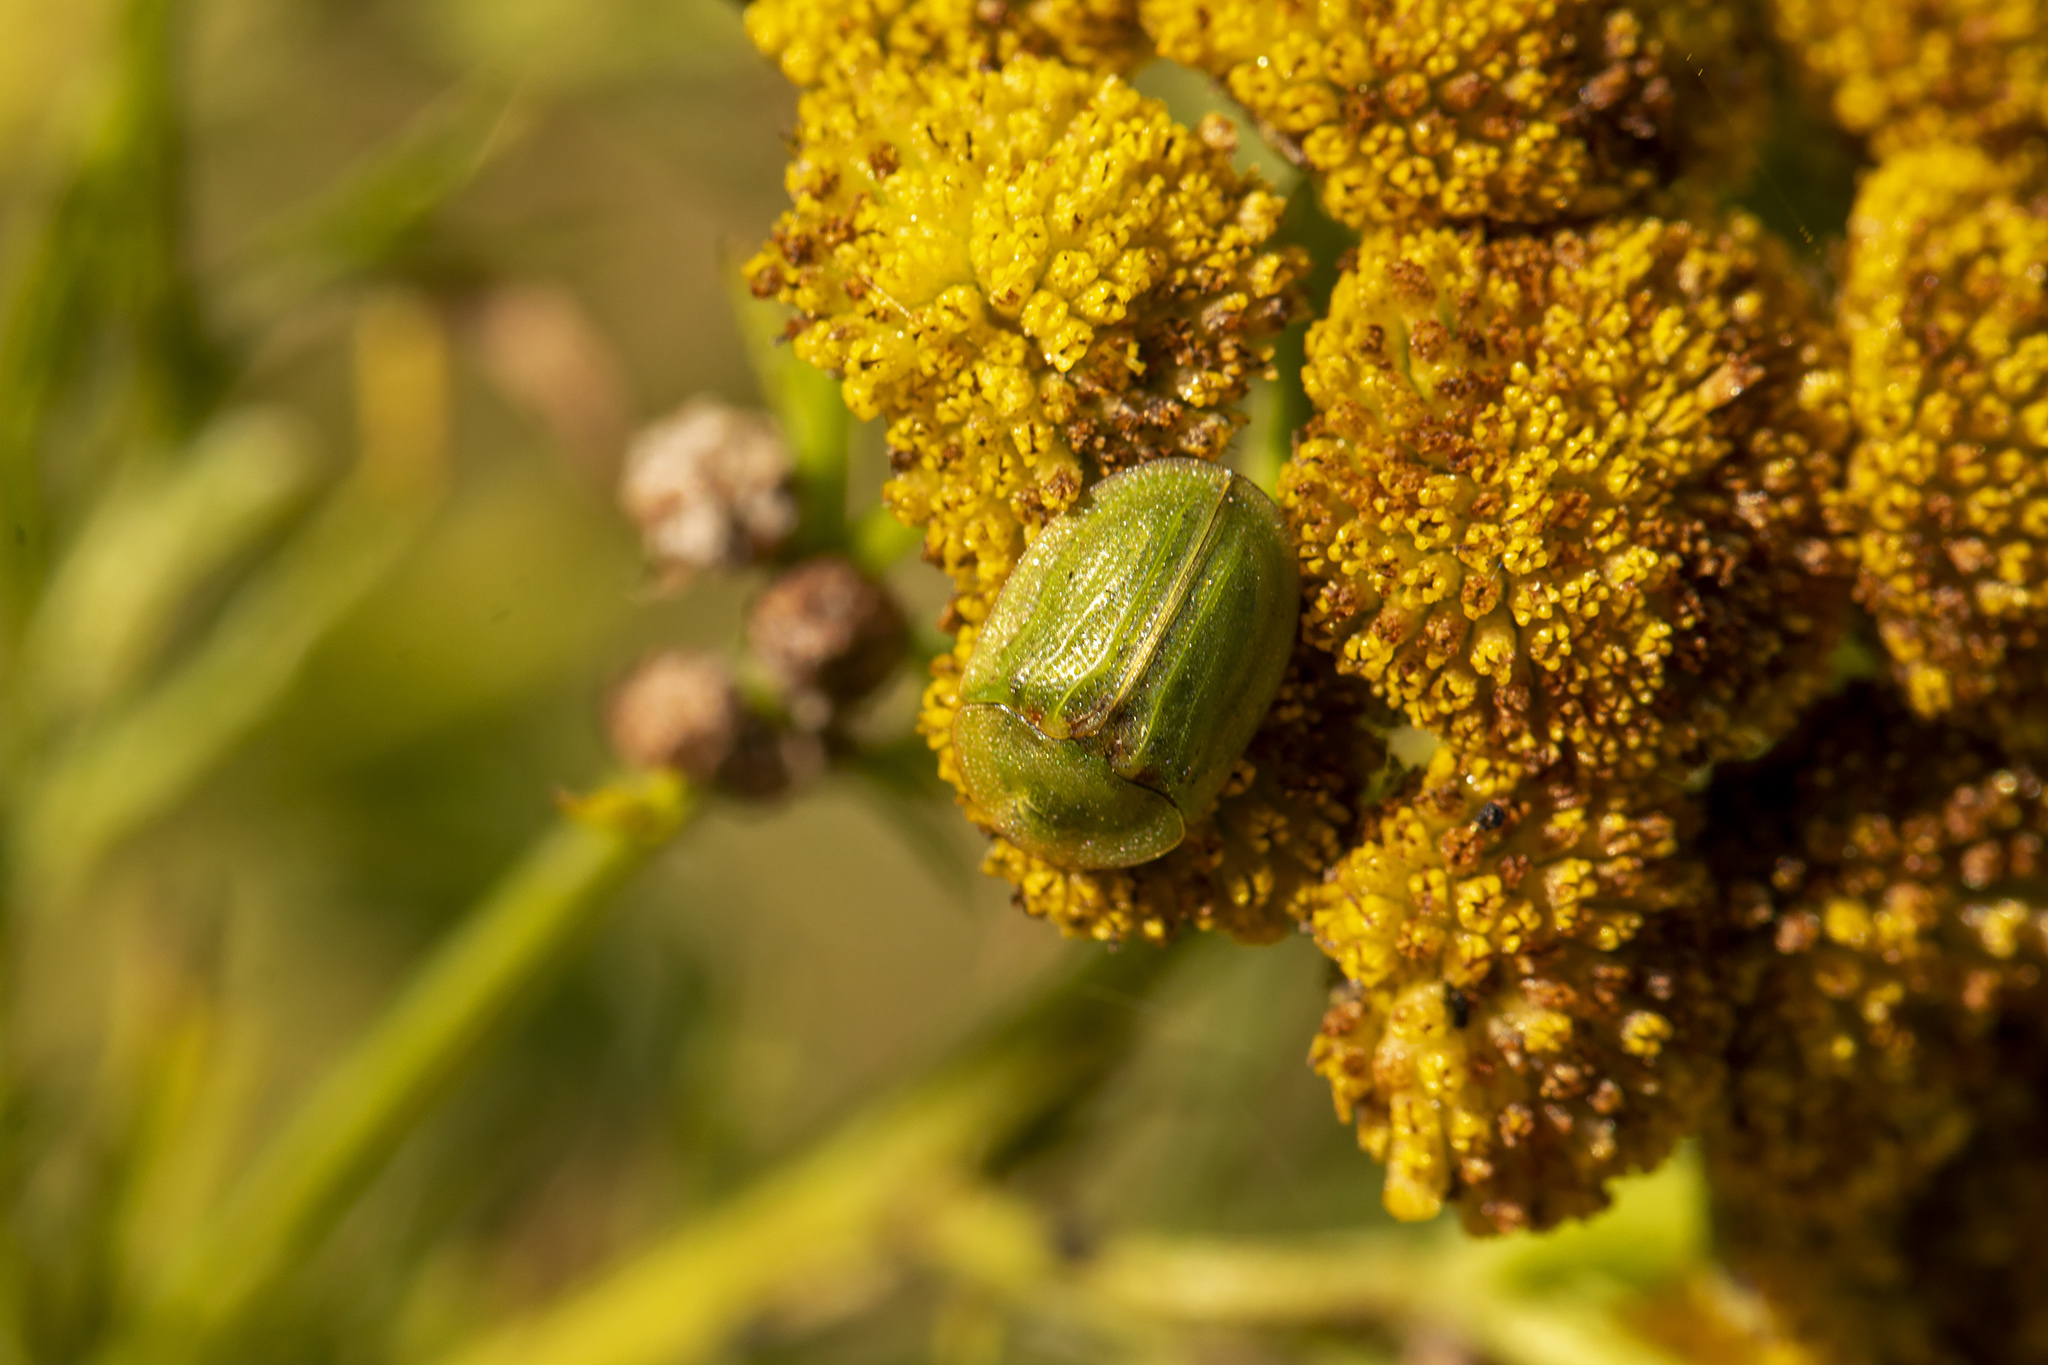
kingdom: Animalia
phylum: Arthropoda
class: Insecta
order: Coleoptera
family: Chrysomelidae
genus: Cassida
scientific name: Cassida stigmatica
